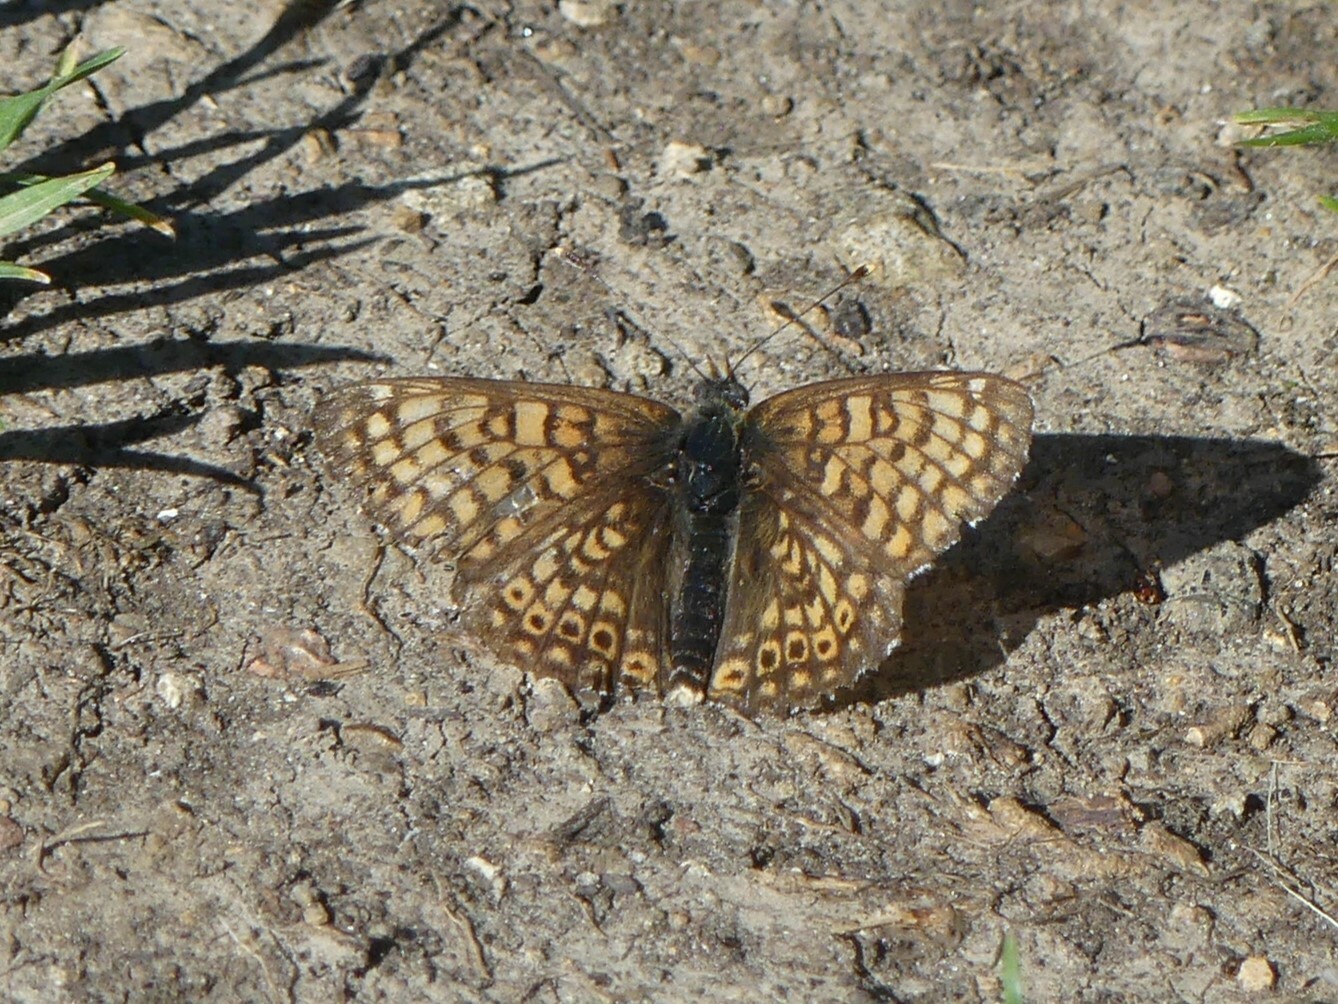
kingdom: Animalia
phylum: Arthropoda
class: Insecta
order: Lepidoptera
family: Nymphalidae
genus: Melitaea
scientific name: Melitaea cinxia
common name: Glanville fritillary
